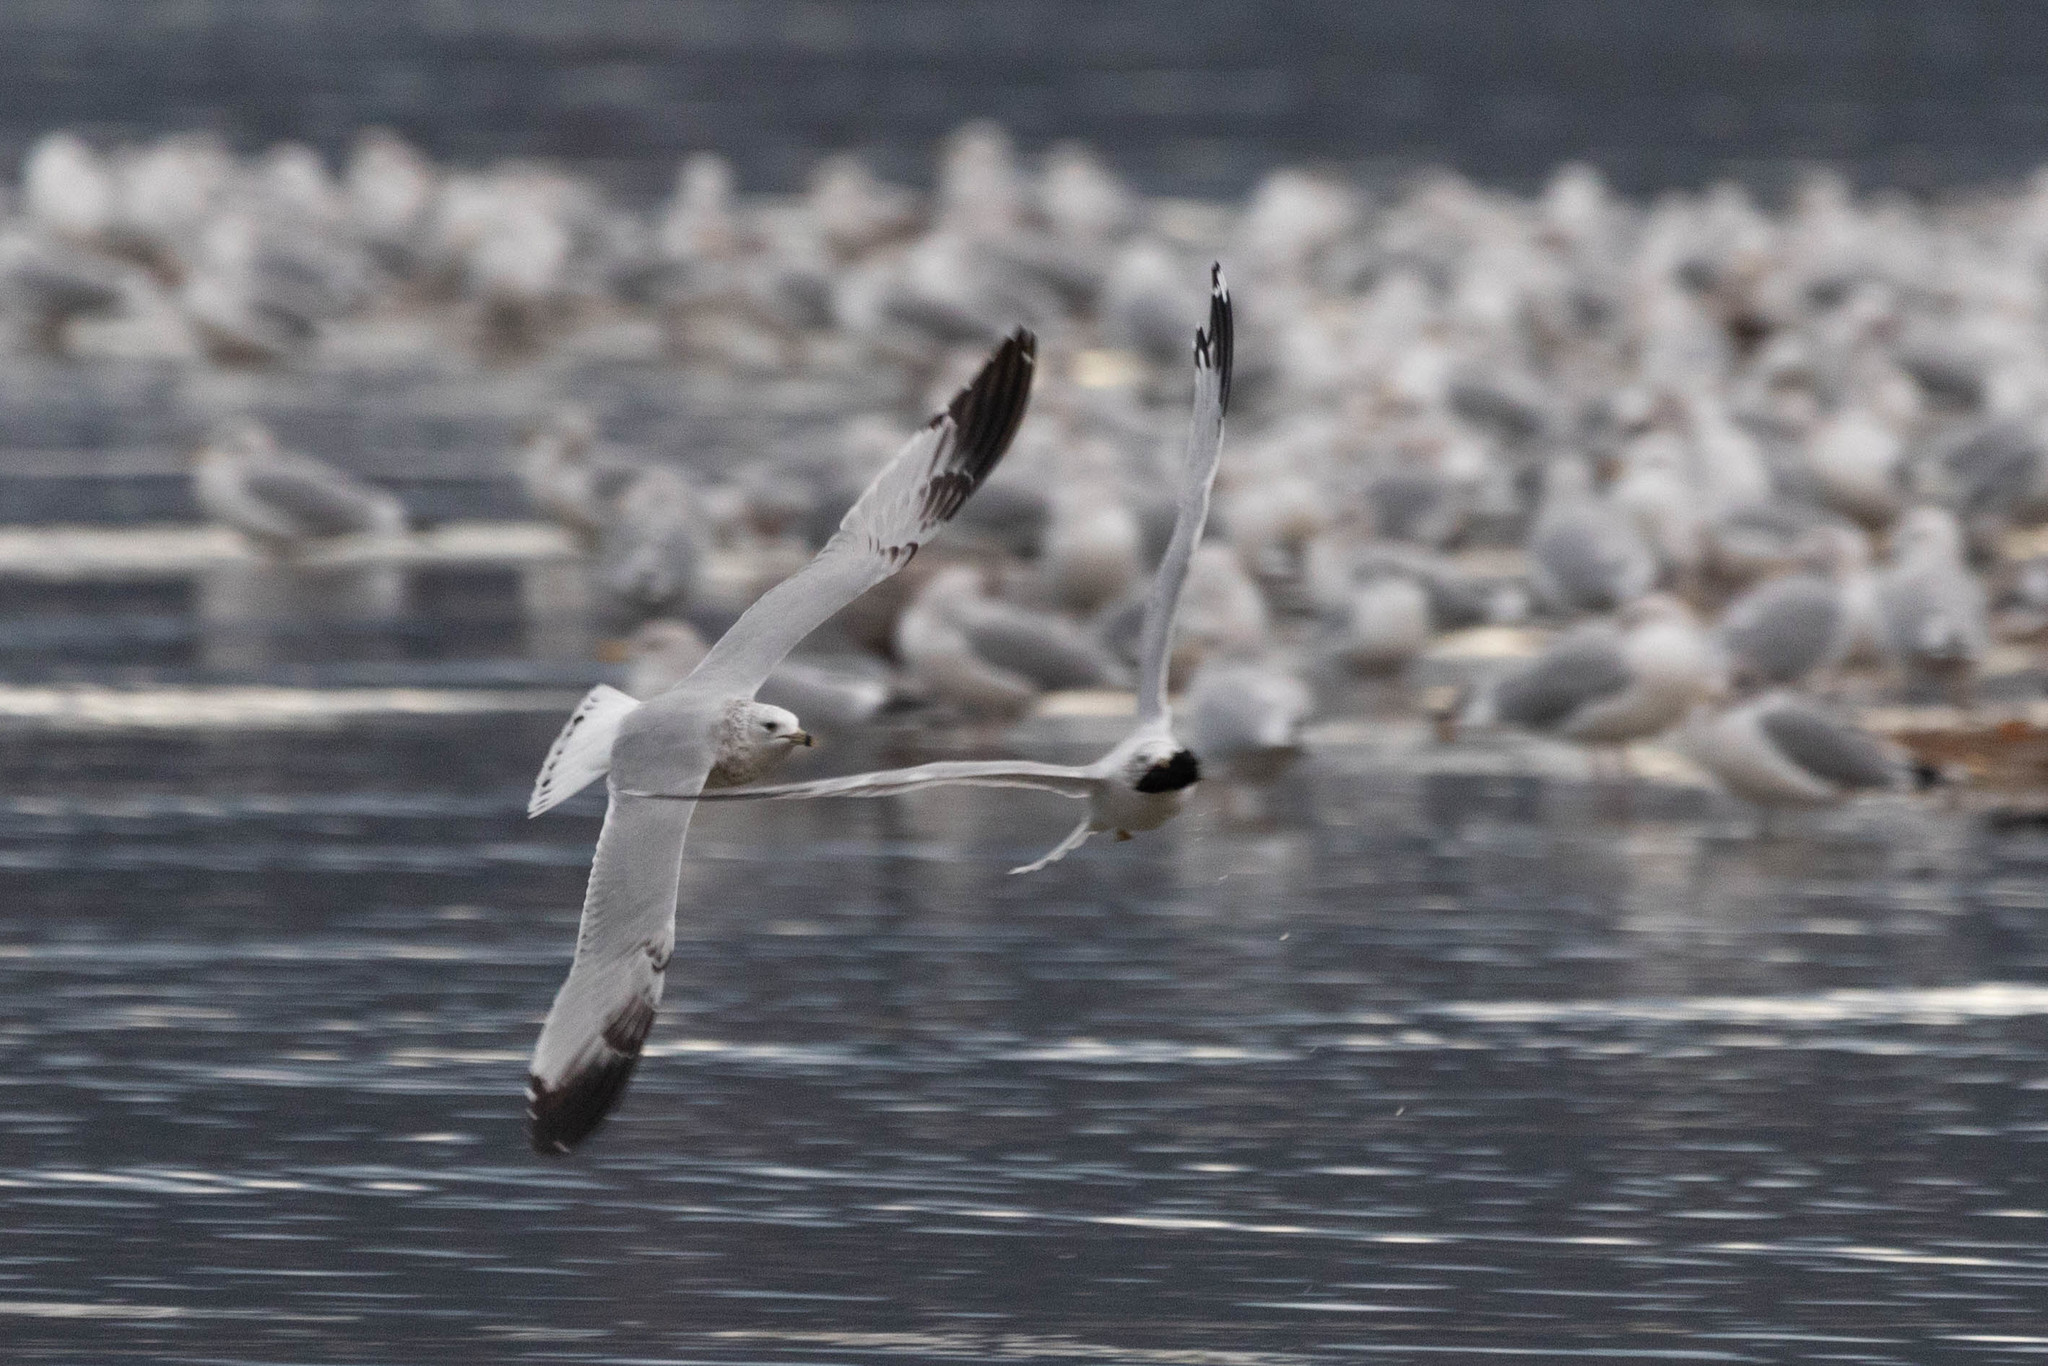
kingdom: Animalia
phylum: Chordata
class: Aves
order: Charadriiformes
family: Laridae
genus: Larus
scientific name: Larus delawarensis
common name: Ring-billed gull
